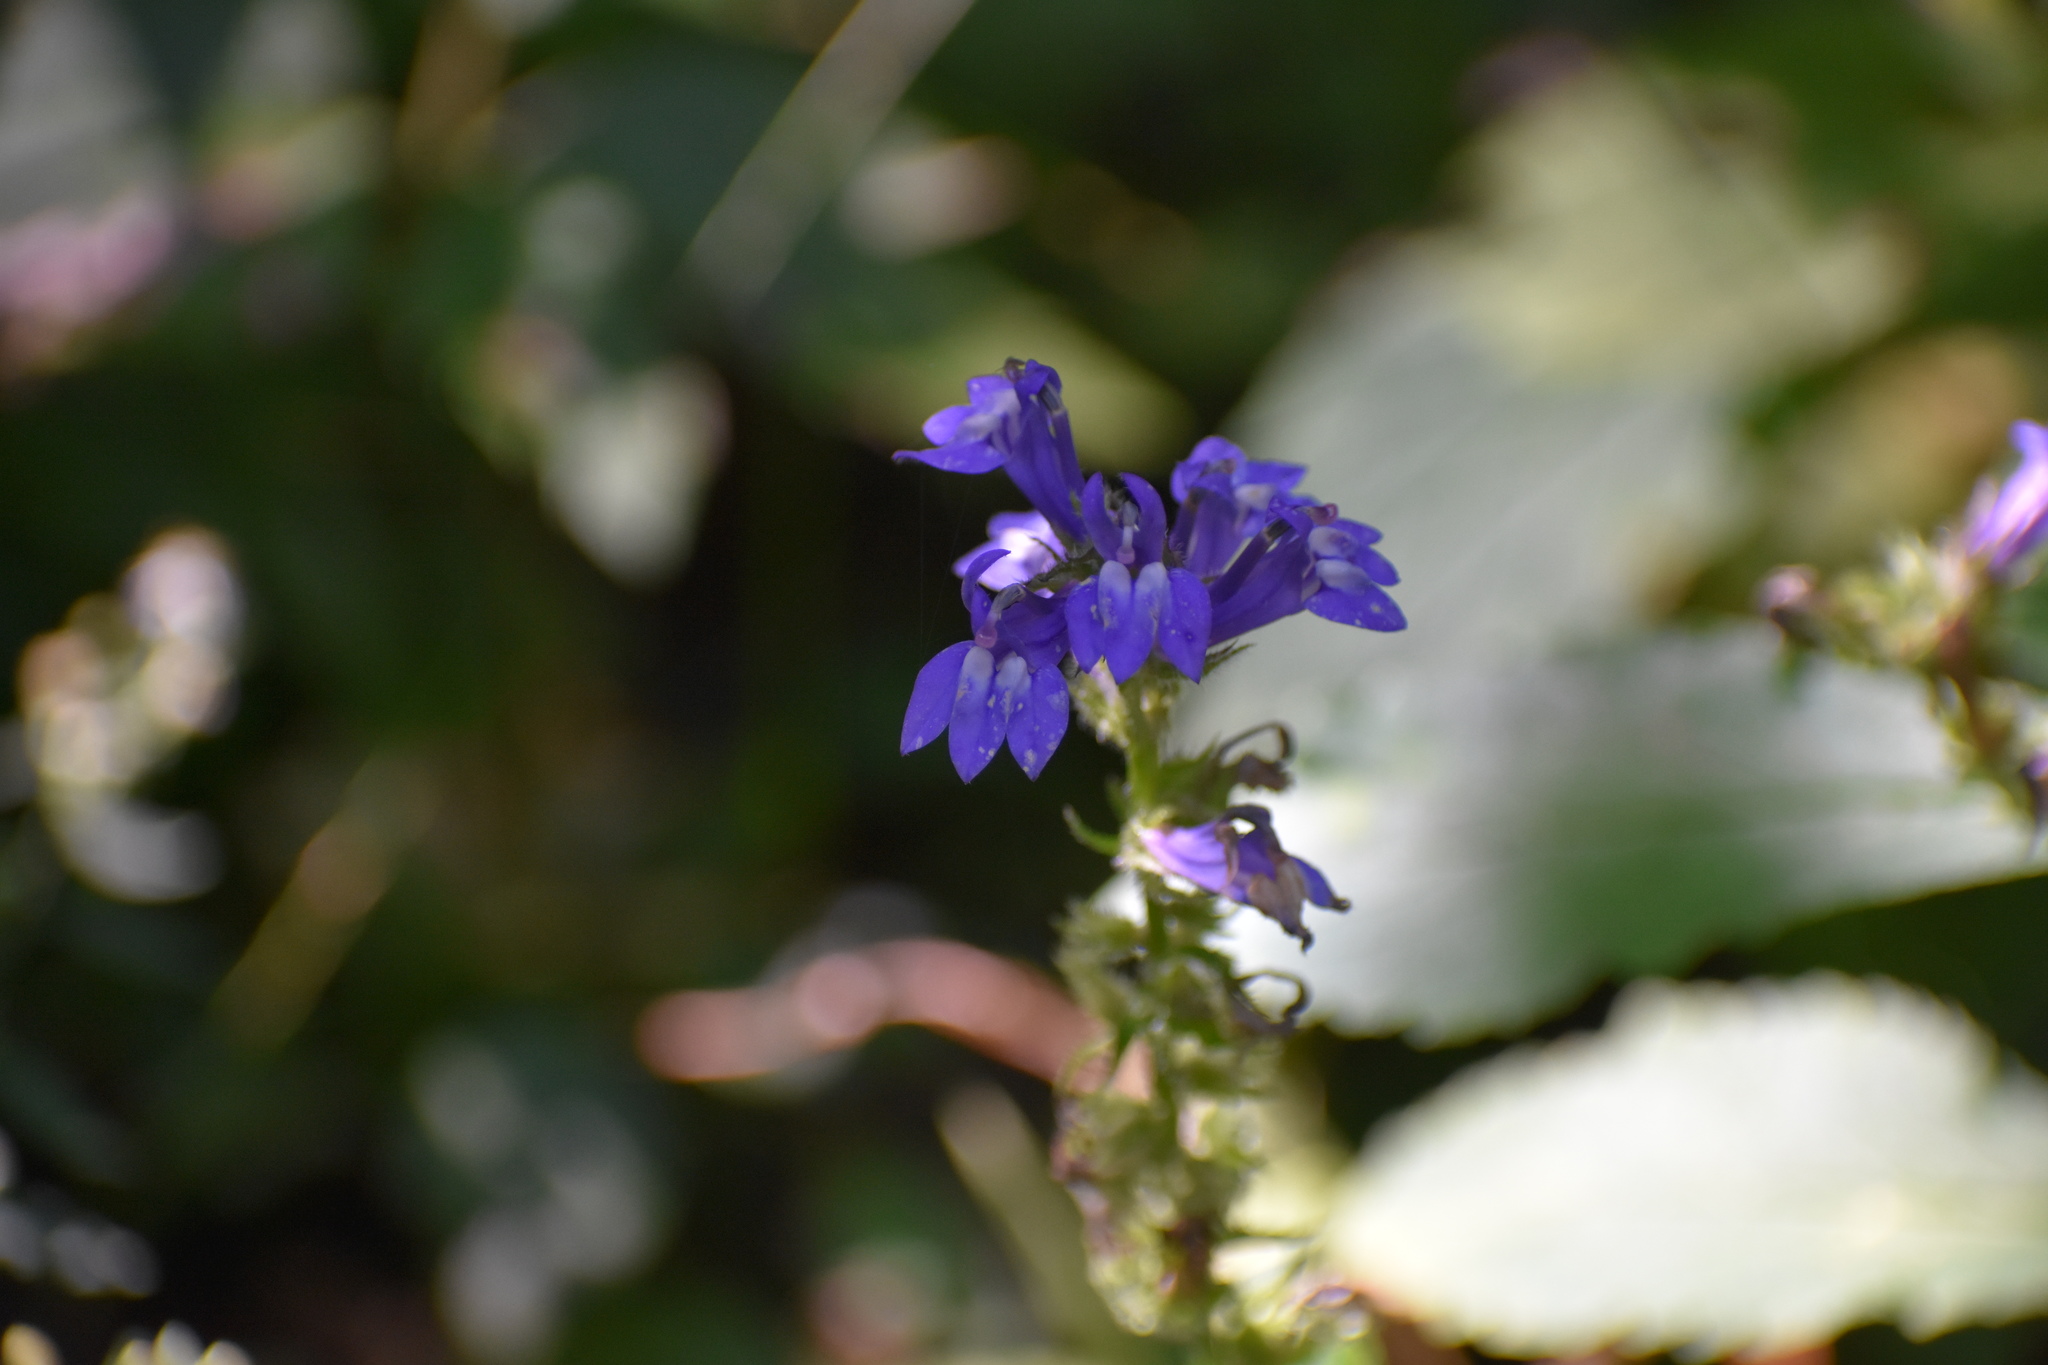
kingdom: Plantae
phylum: Tracheophyta
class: Magnoliopsida
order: Asterales
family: Campanulaceae
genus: Lobelia
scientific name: Lobelia siphilitica
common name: Great lobelia
